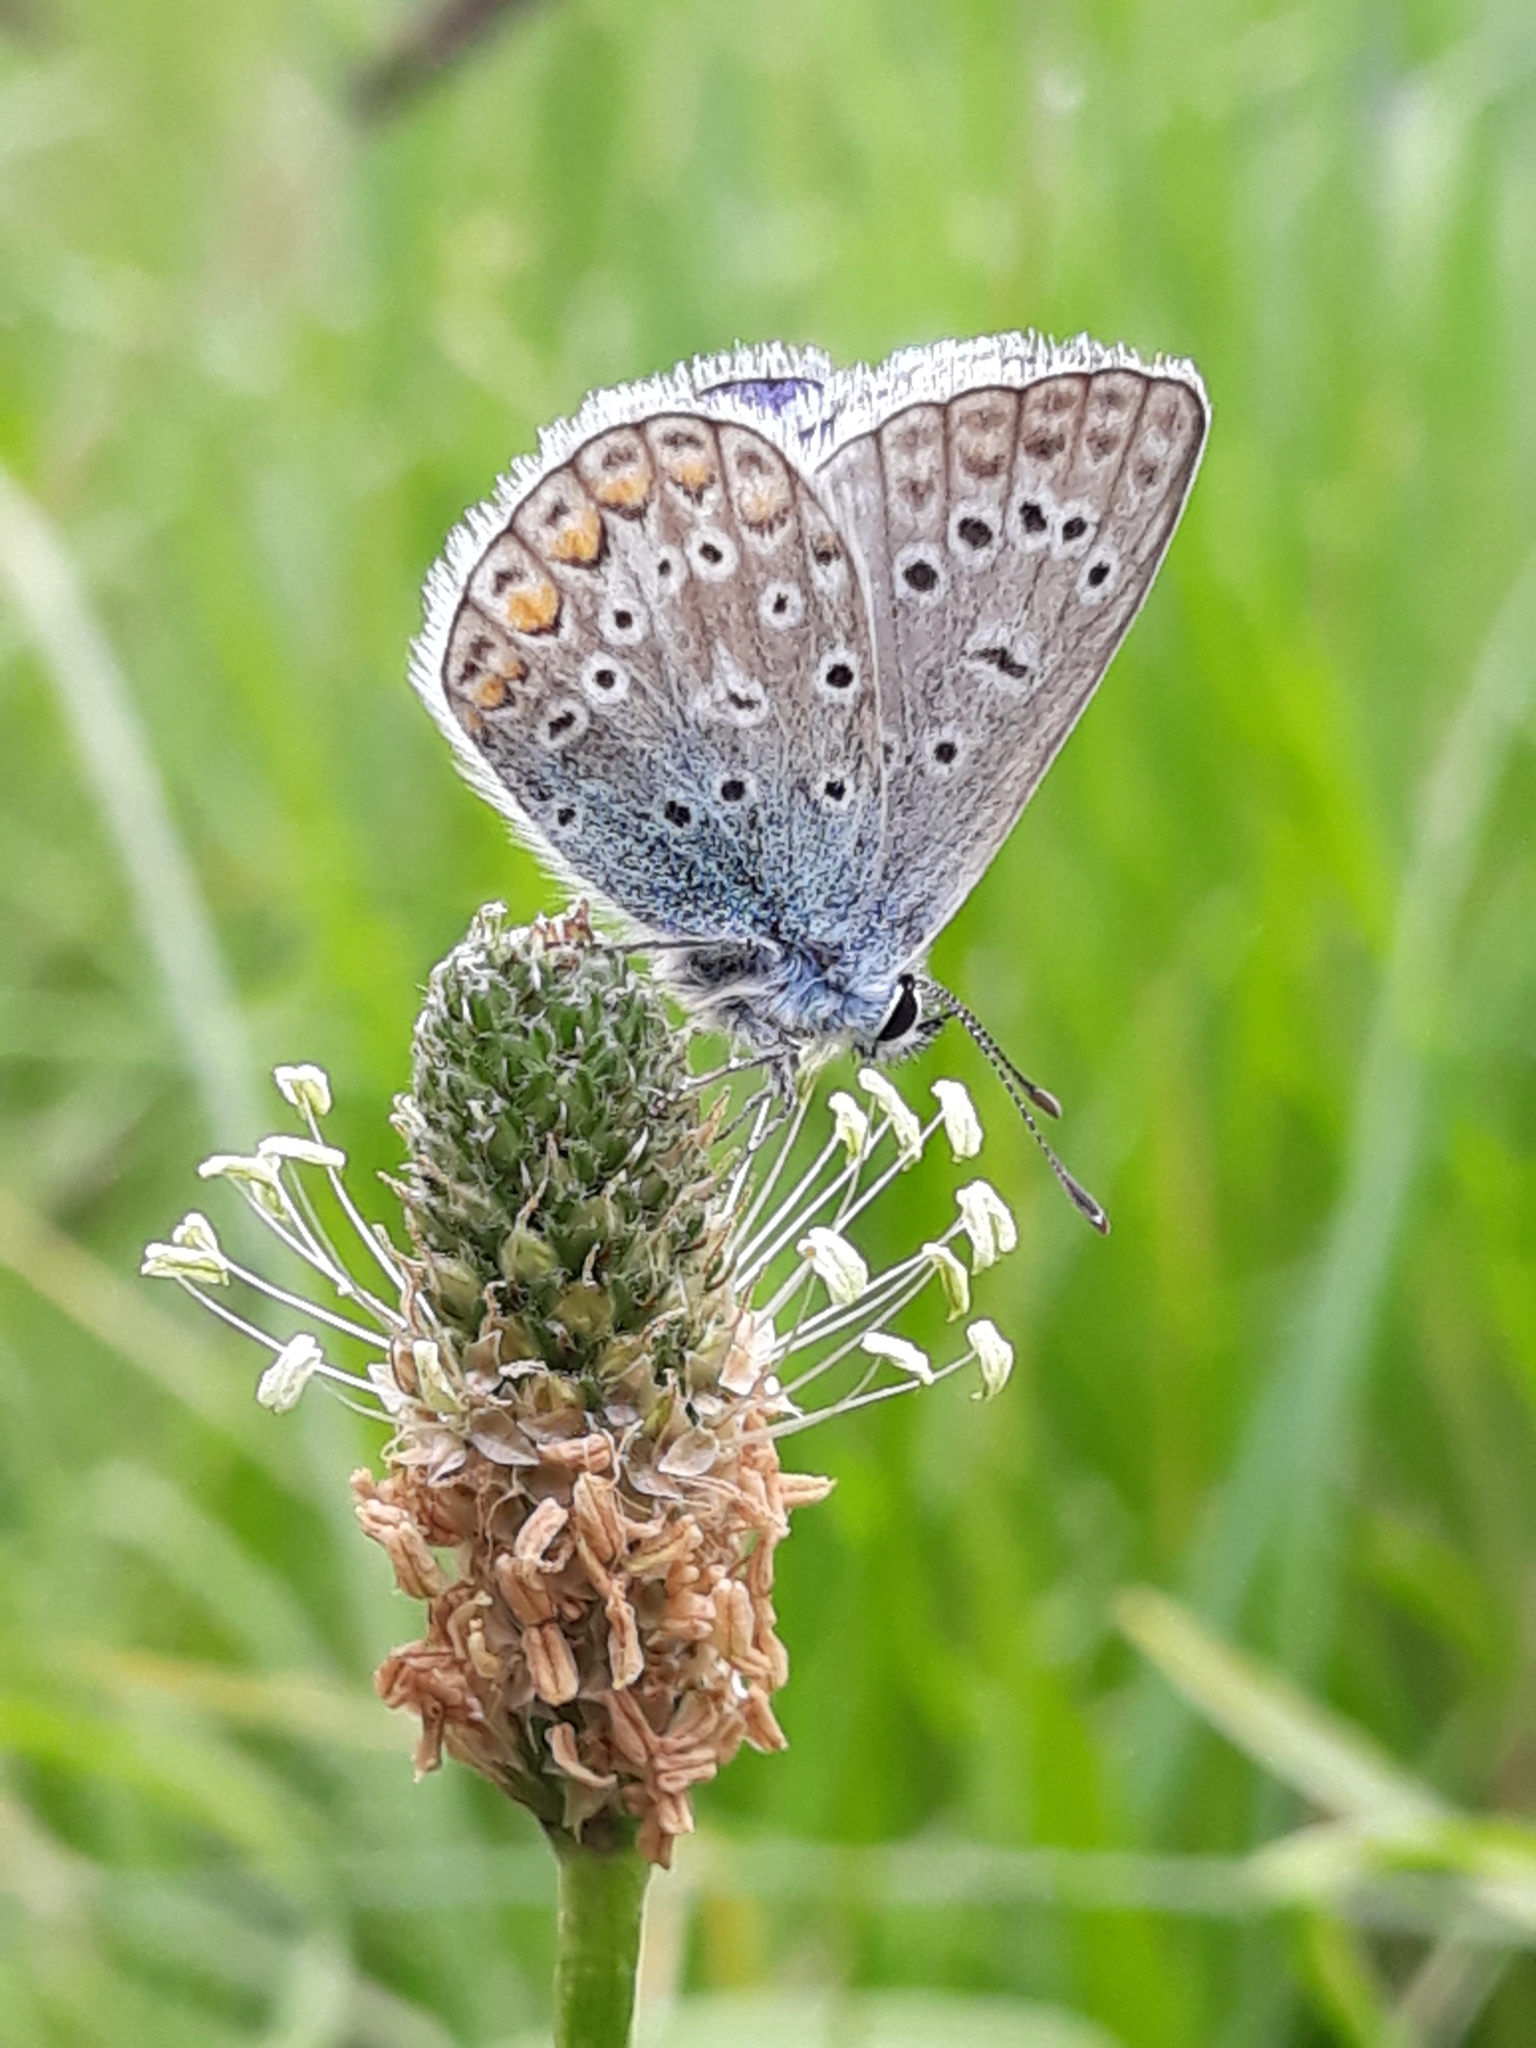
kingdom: Animalia
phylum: Arthropoda
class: Insecta
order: Lepidoptera
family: Lycaenidae
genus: Polyommatus
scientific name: Polyommatus icarus
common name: Common blue
